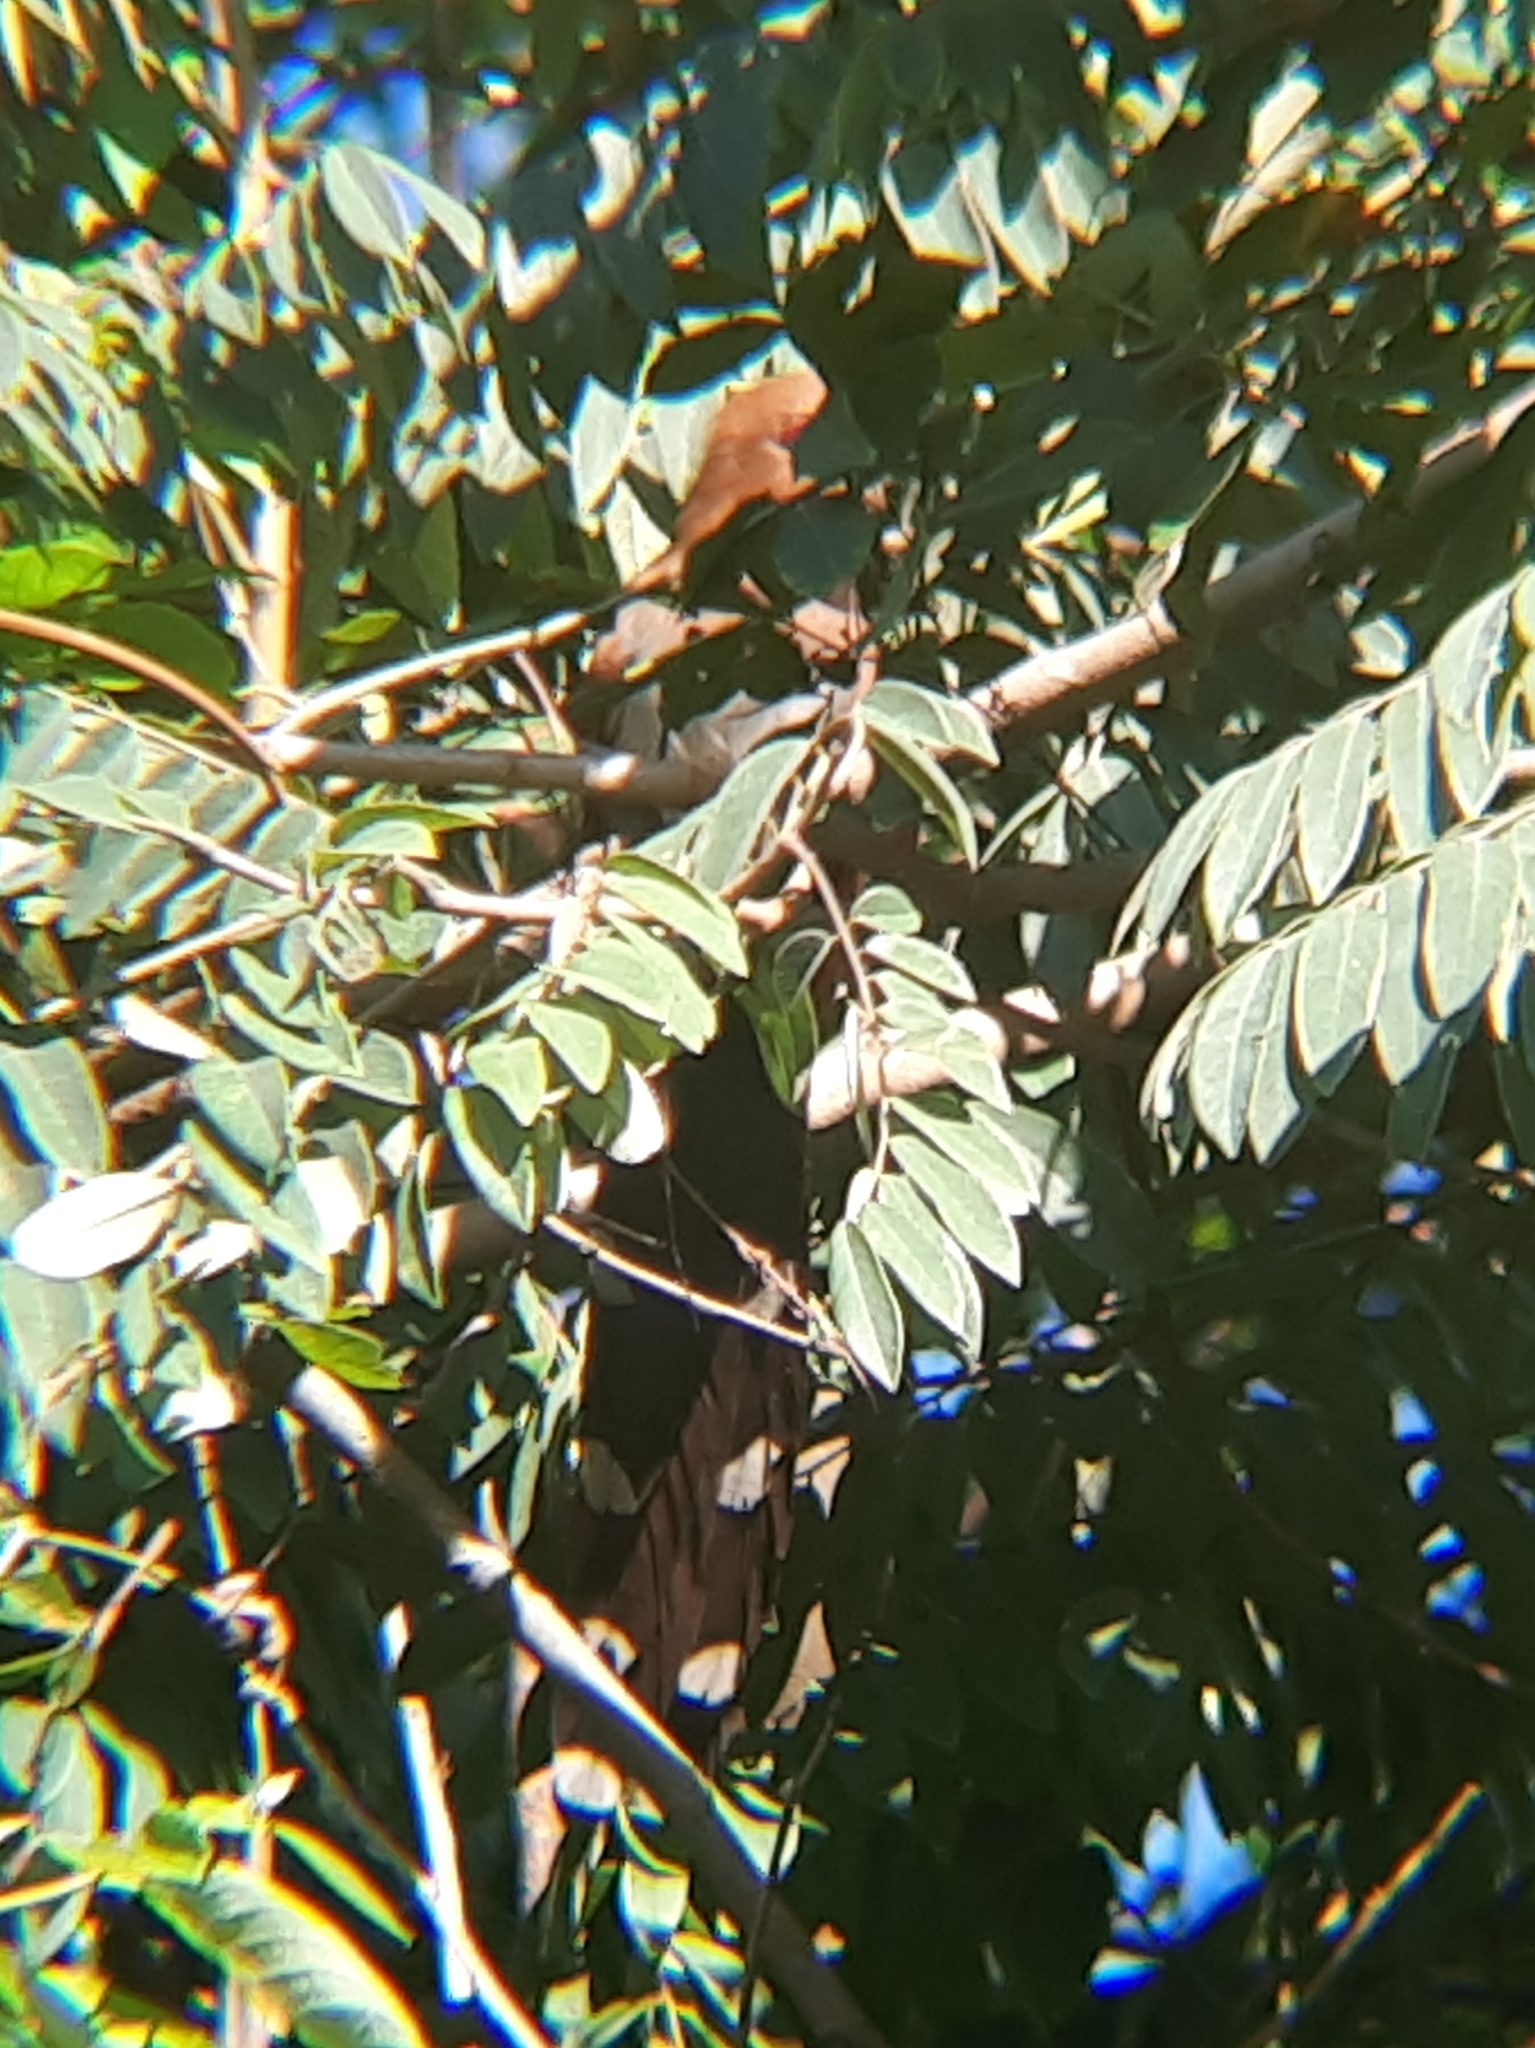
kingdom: Animalia
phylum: Chordata
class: Aves
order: Cuculiformes
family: Cuculidae
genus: Piaya
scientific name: Piaya cayana
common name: Squirrel cuckoo
